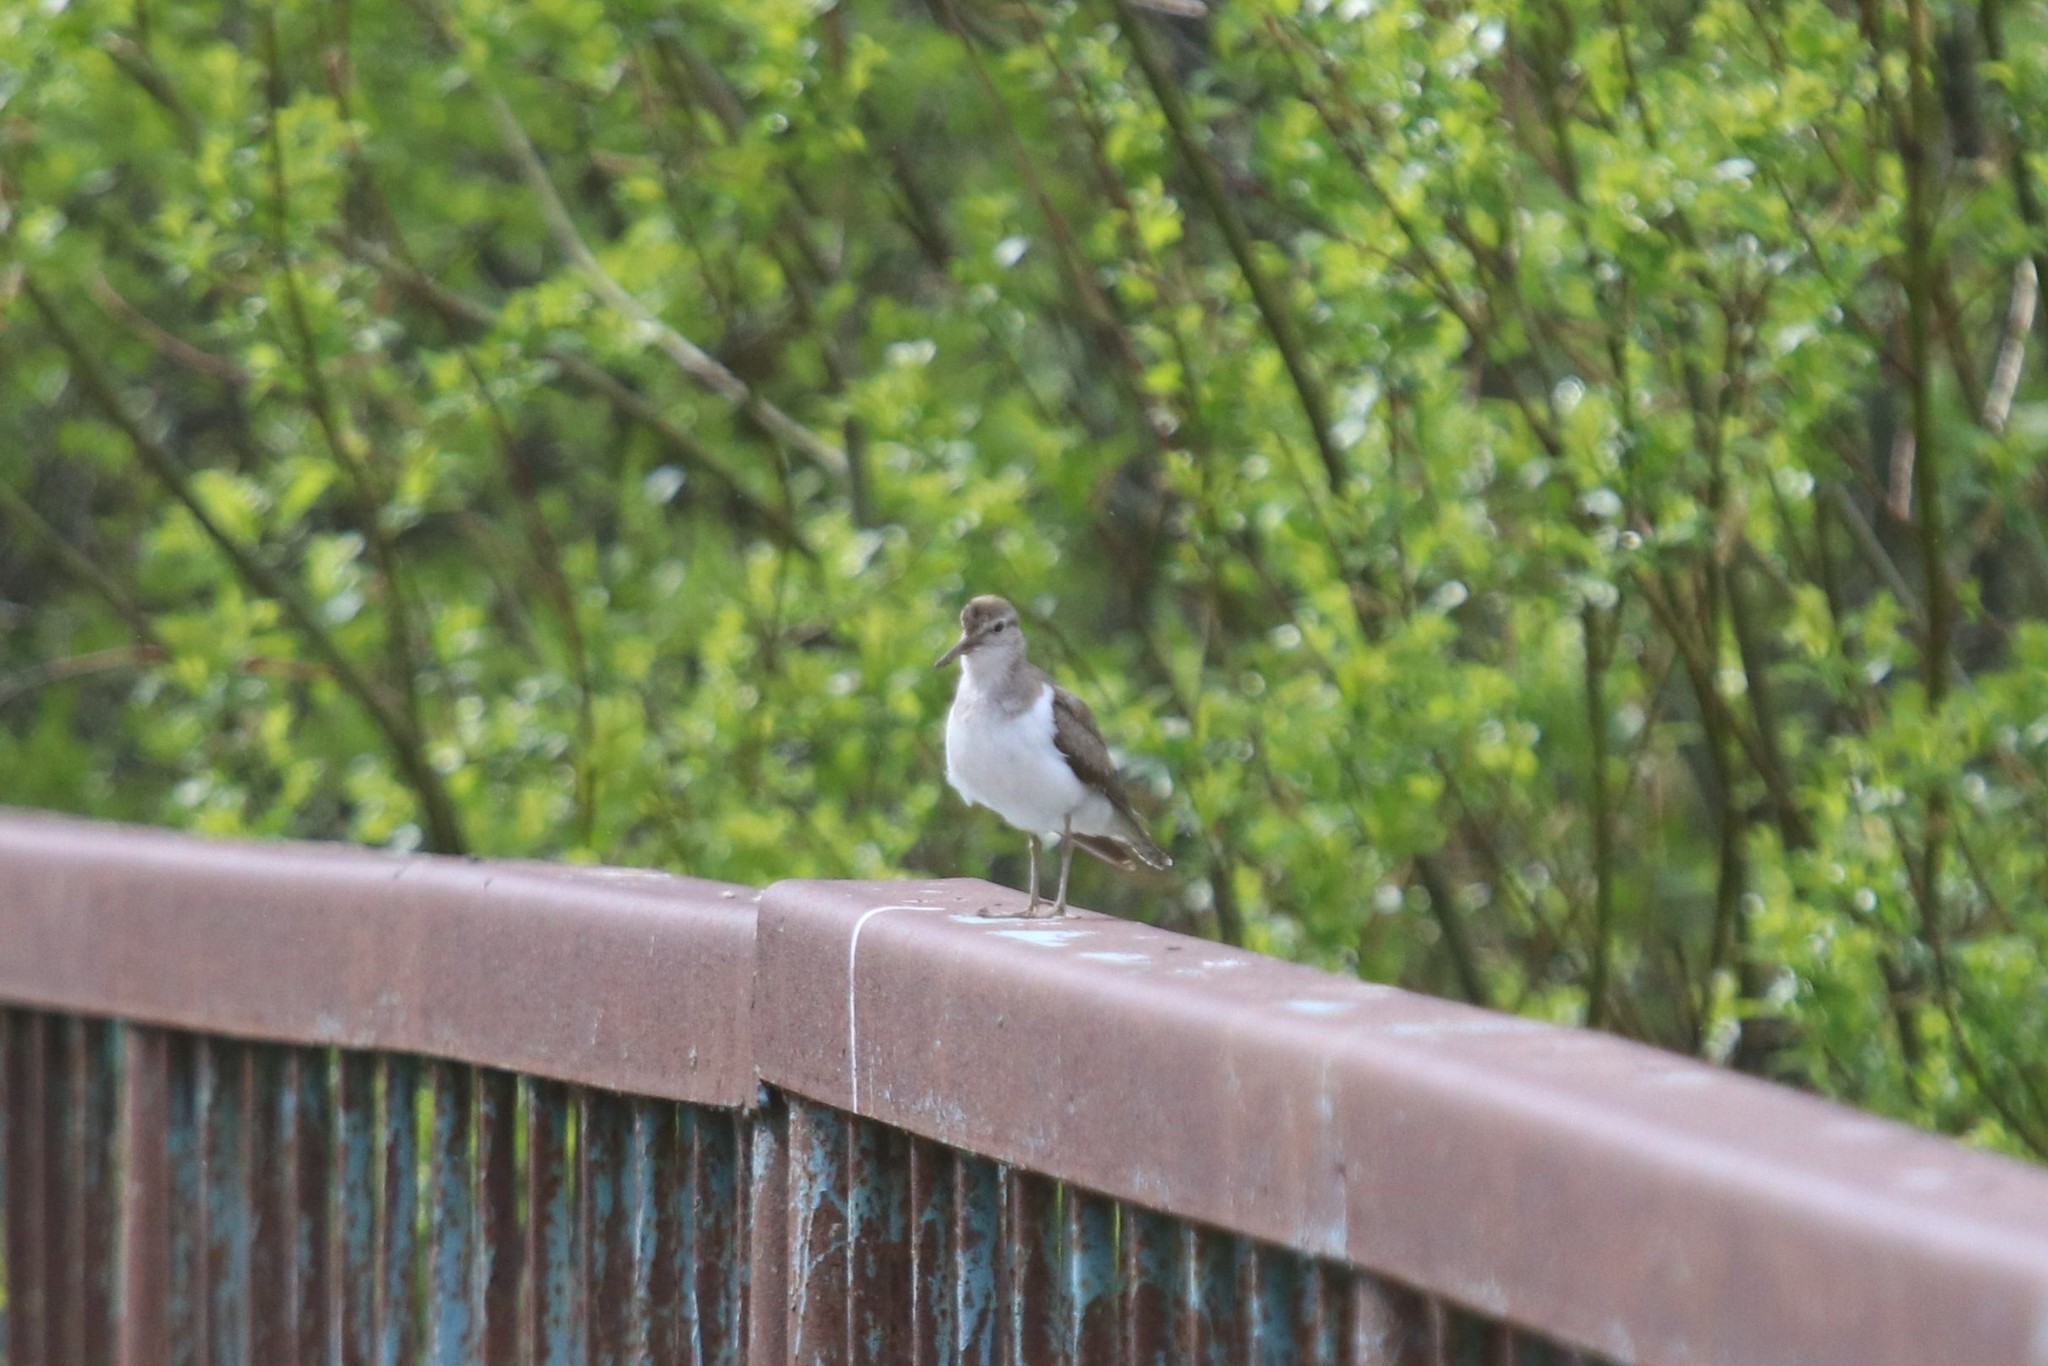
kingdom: Animalia
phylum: Chordata
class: Aves
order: Charadriiformes
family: Scolopacidae
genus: Actitis
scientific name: Actitis hypoleucos
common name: Common sandpiper
